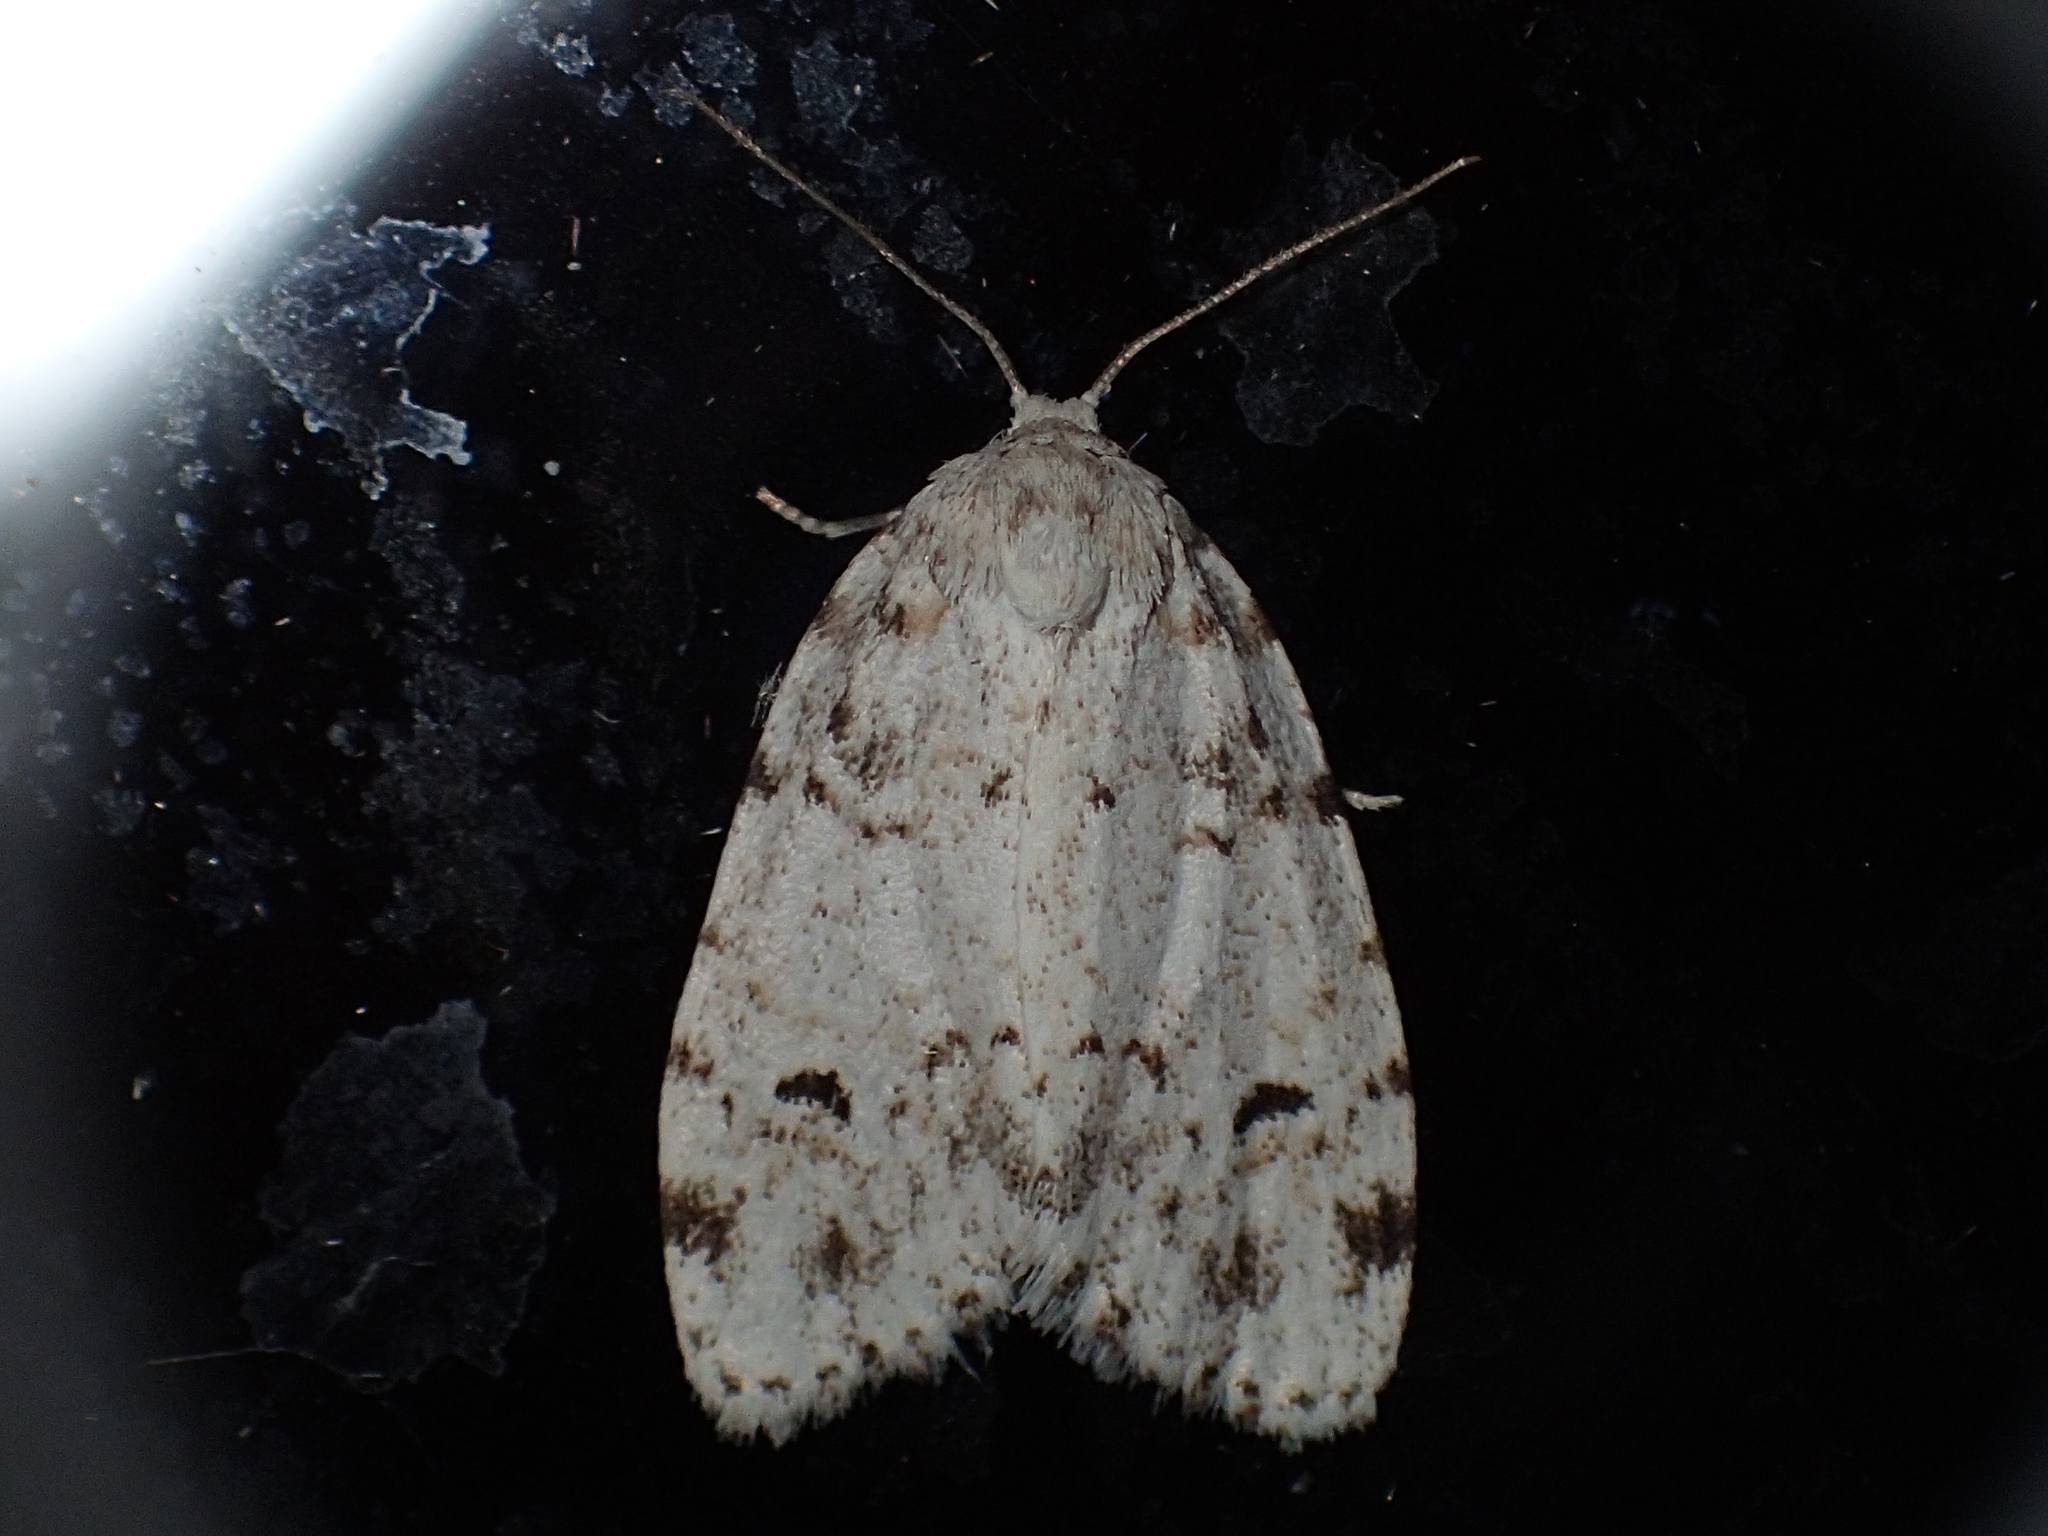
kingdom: Animalia
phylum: Arthropoda
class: Insecta
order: Lepidoptera
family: Erebidae
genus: Clemensia
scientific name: Clemensia albata
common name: Little white lichen moth
